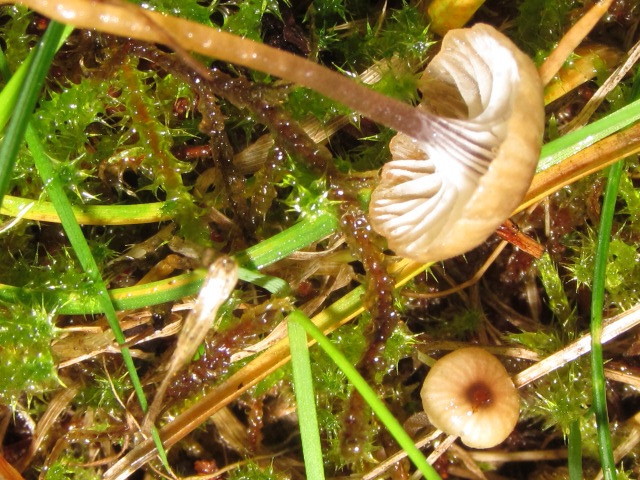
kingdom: Fungi
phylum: Basidiomycota
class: Agaricomycetes
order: Hymenochaetales
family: Rickenellaceae
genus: Rickenella
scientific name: Rickenella swartzii
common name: Collared mosscap
